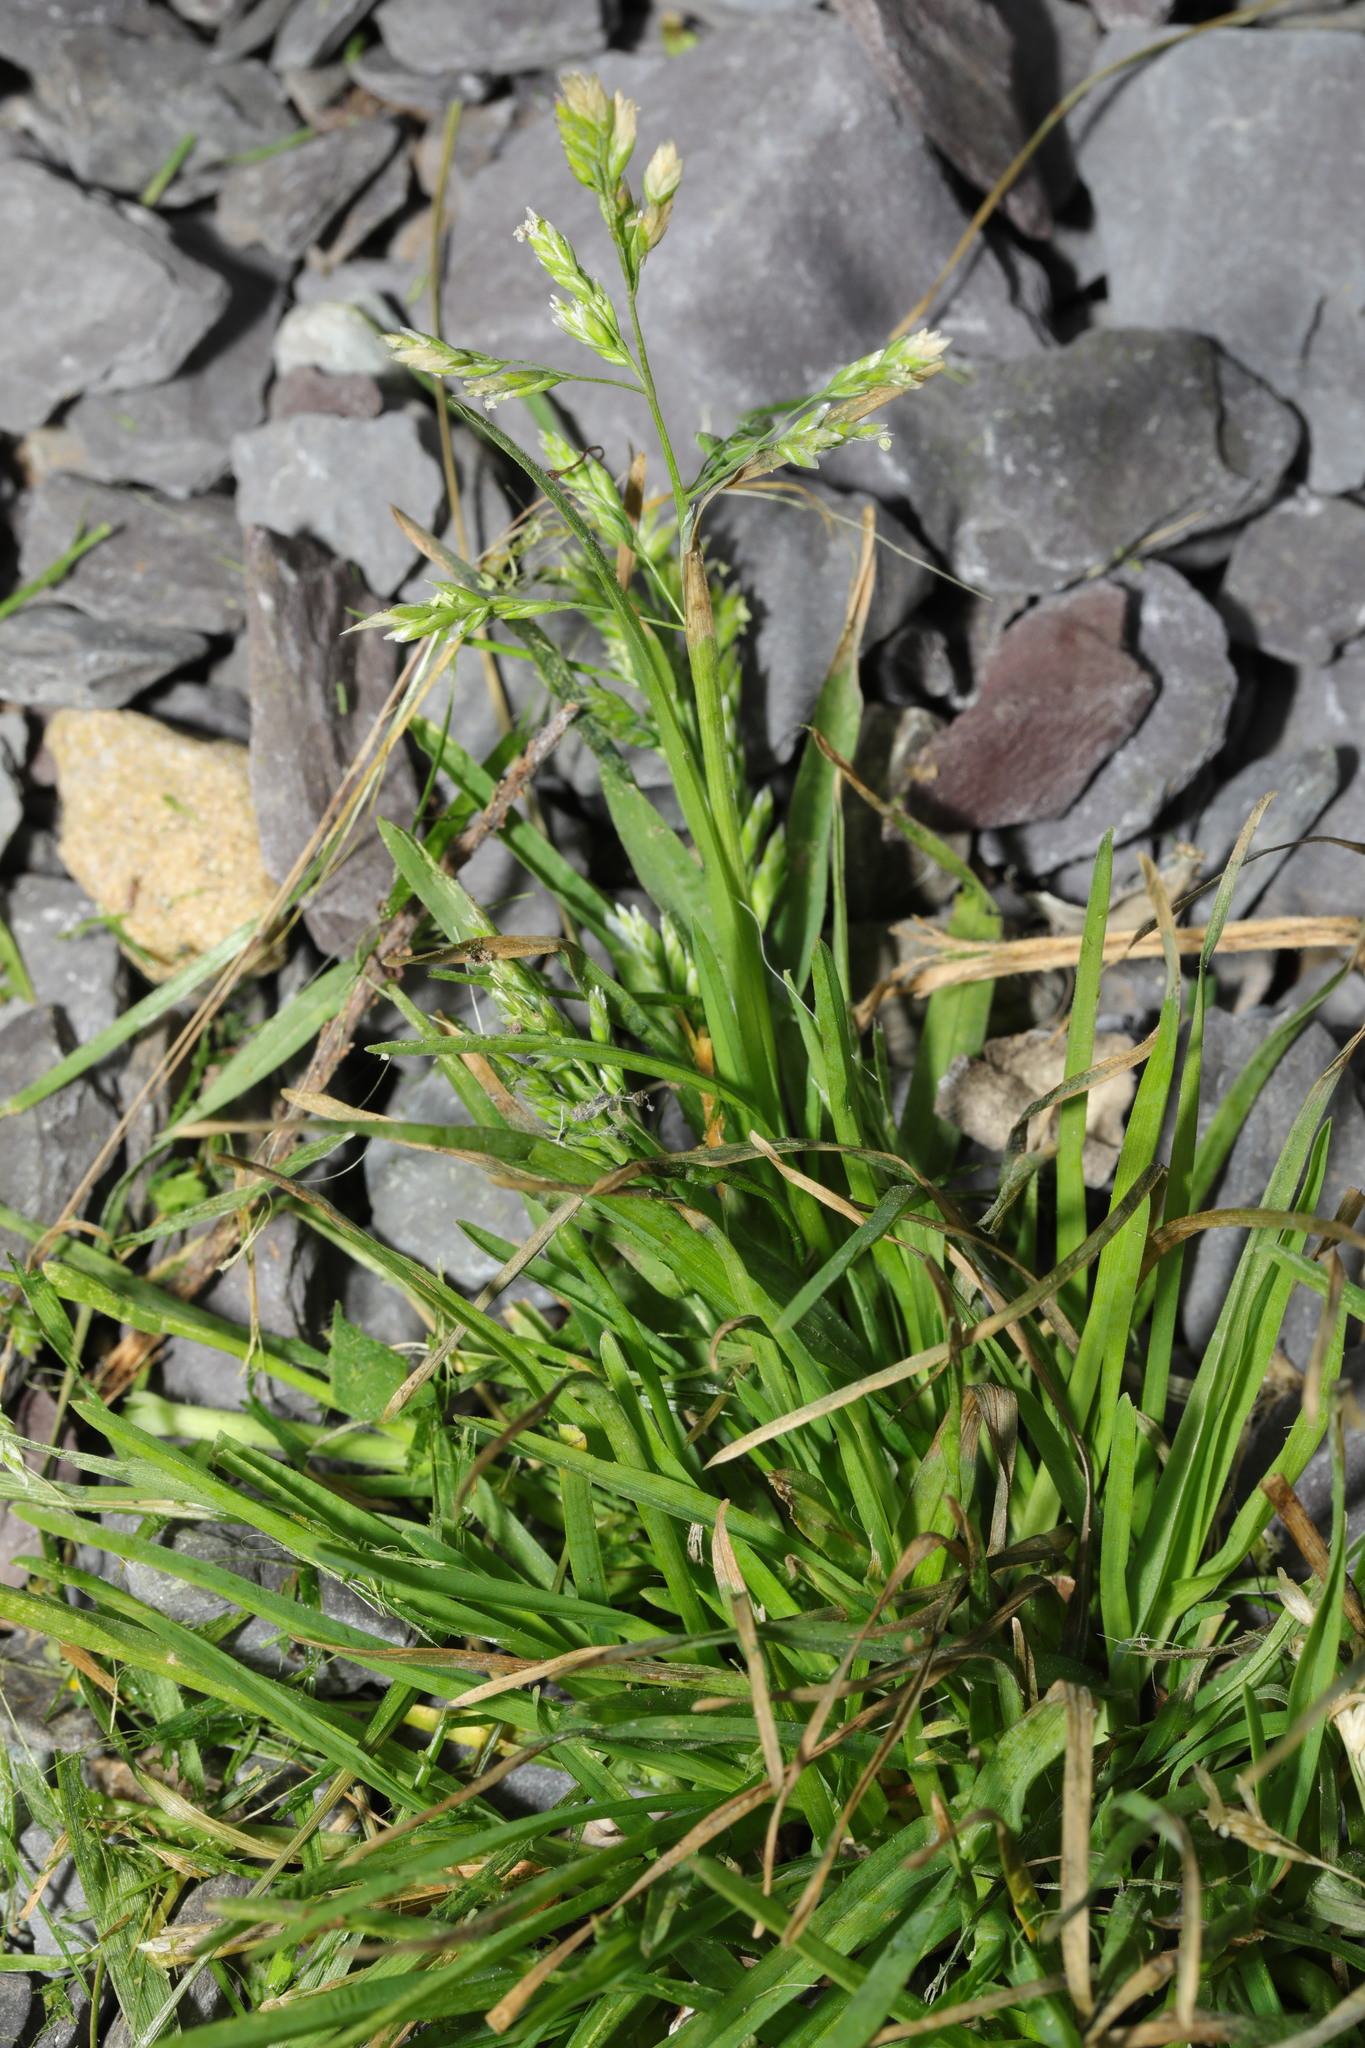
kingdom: Plantae
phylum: Tracheophyta
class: Liliopsida
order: Poales
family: Poaceae
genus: Poa
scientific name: Poa annua
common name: Annual bluegrass
